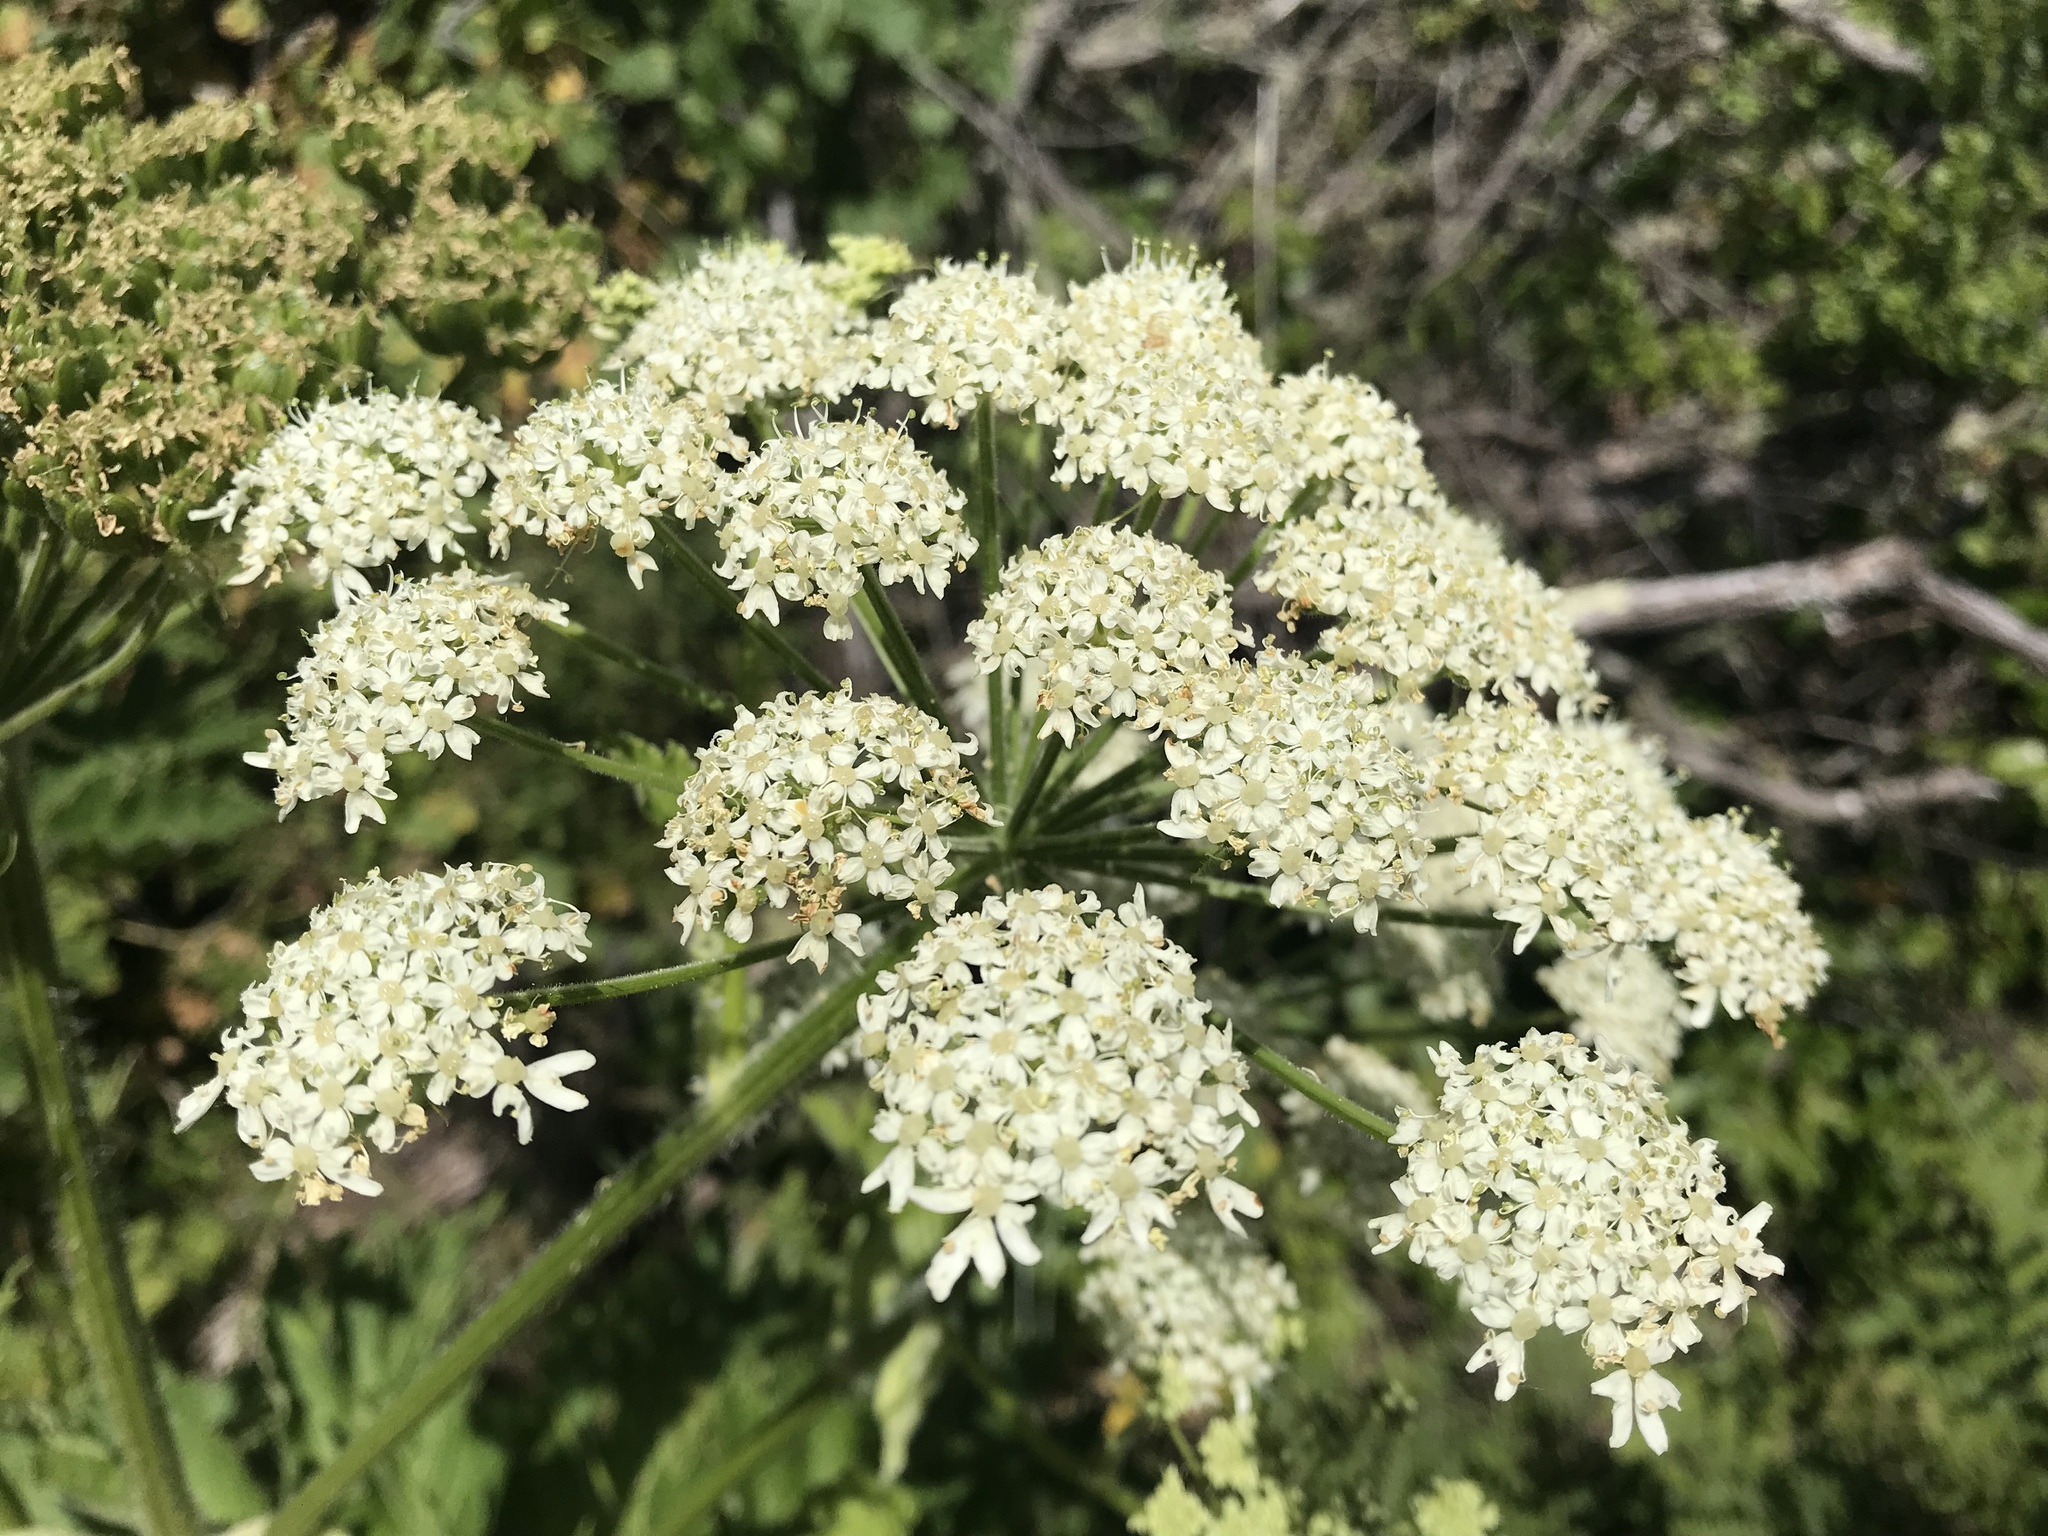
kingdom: Plantae
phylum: Tracheophyta
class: Magnoliopsida
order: Apiales
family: Apiaceae
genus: Heracleum
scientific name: Heracleum maximum
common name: American cow parsnip
